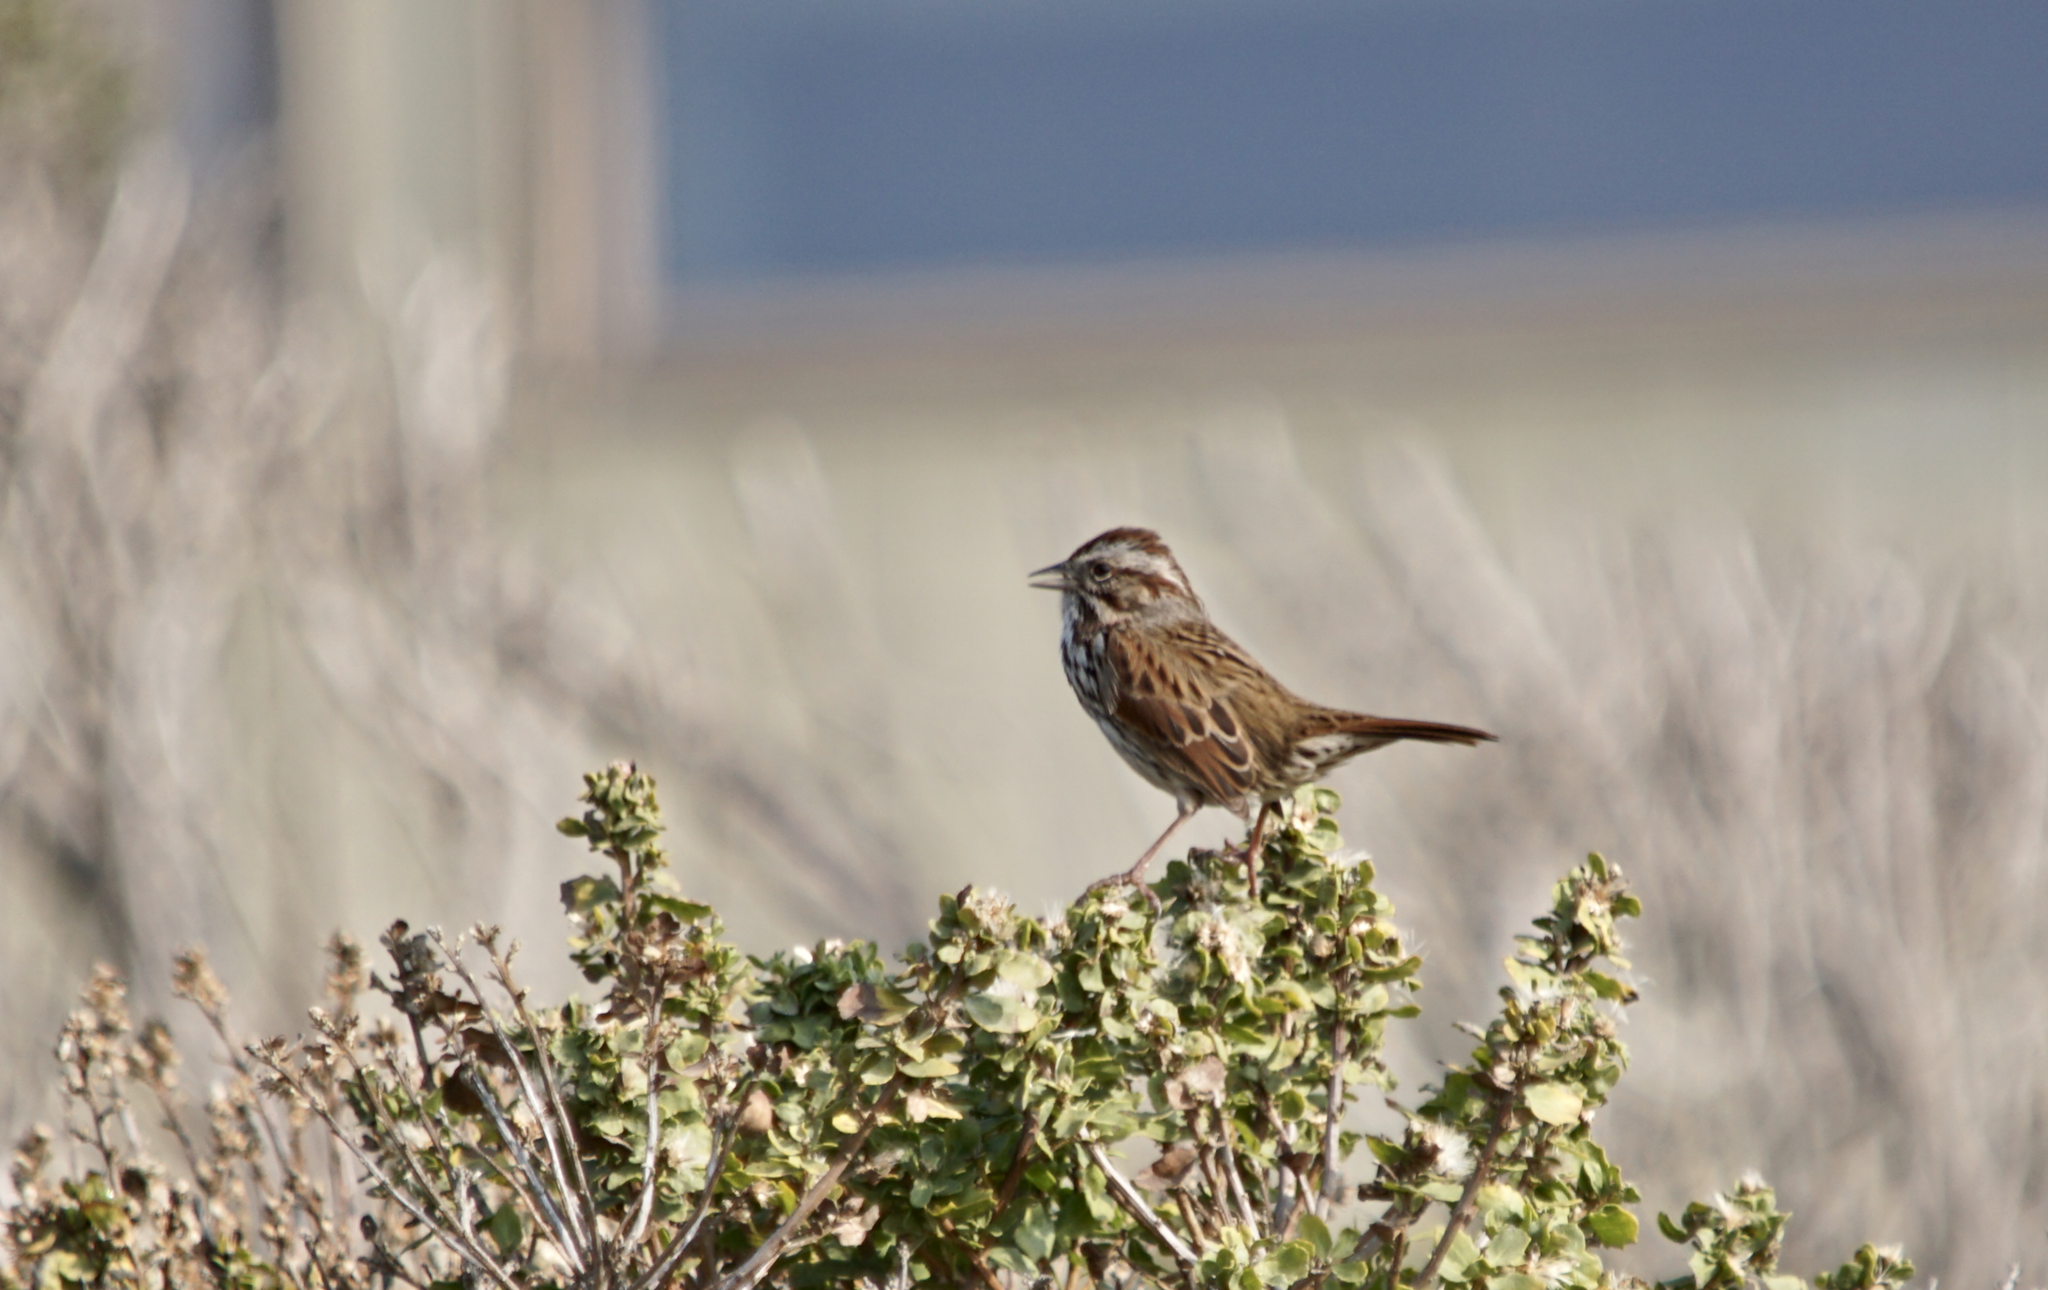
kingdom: Animalia
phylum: Chordata
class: Aves
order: Passeriformes
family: Passerellidae
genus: Melospiza
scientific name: Melospiza melodia
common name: Song sparrow
